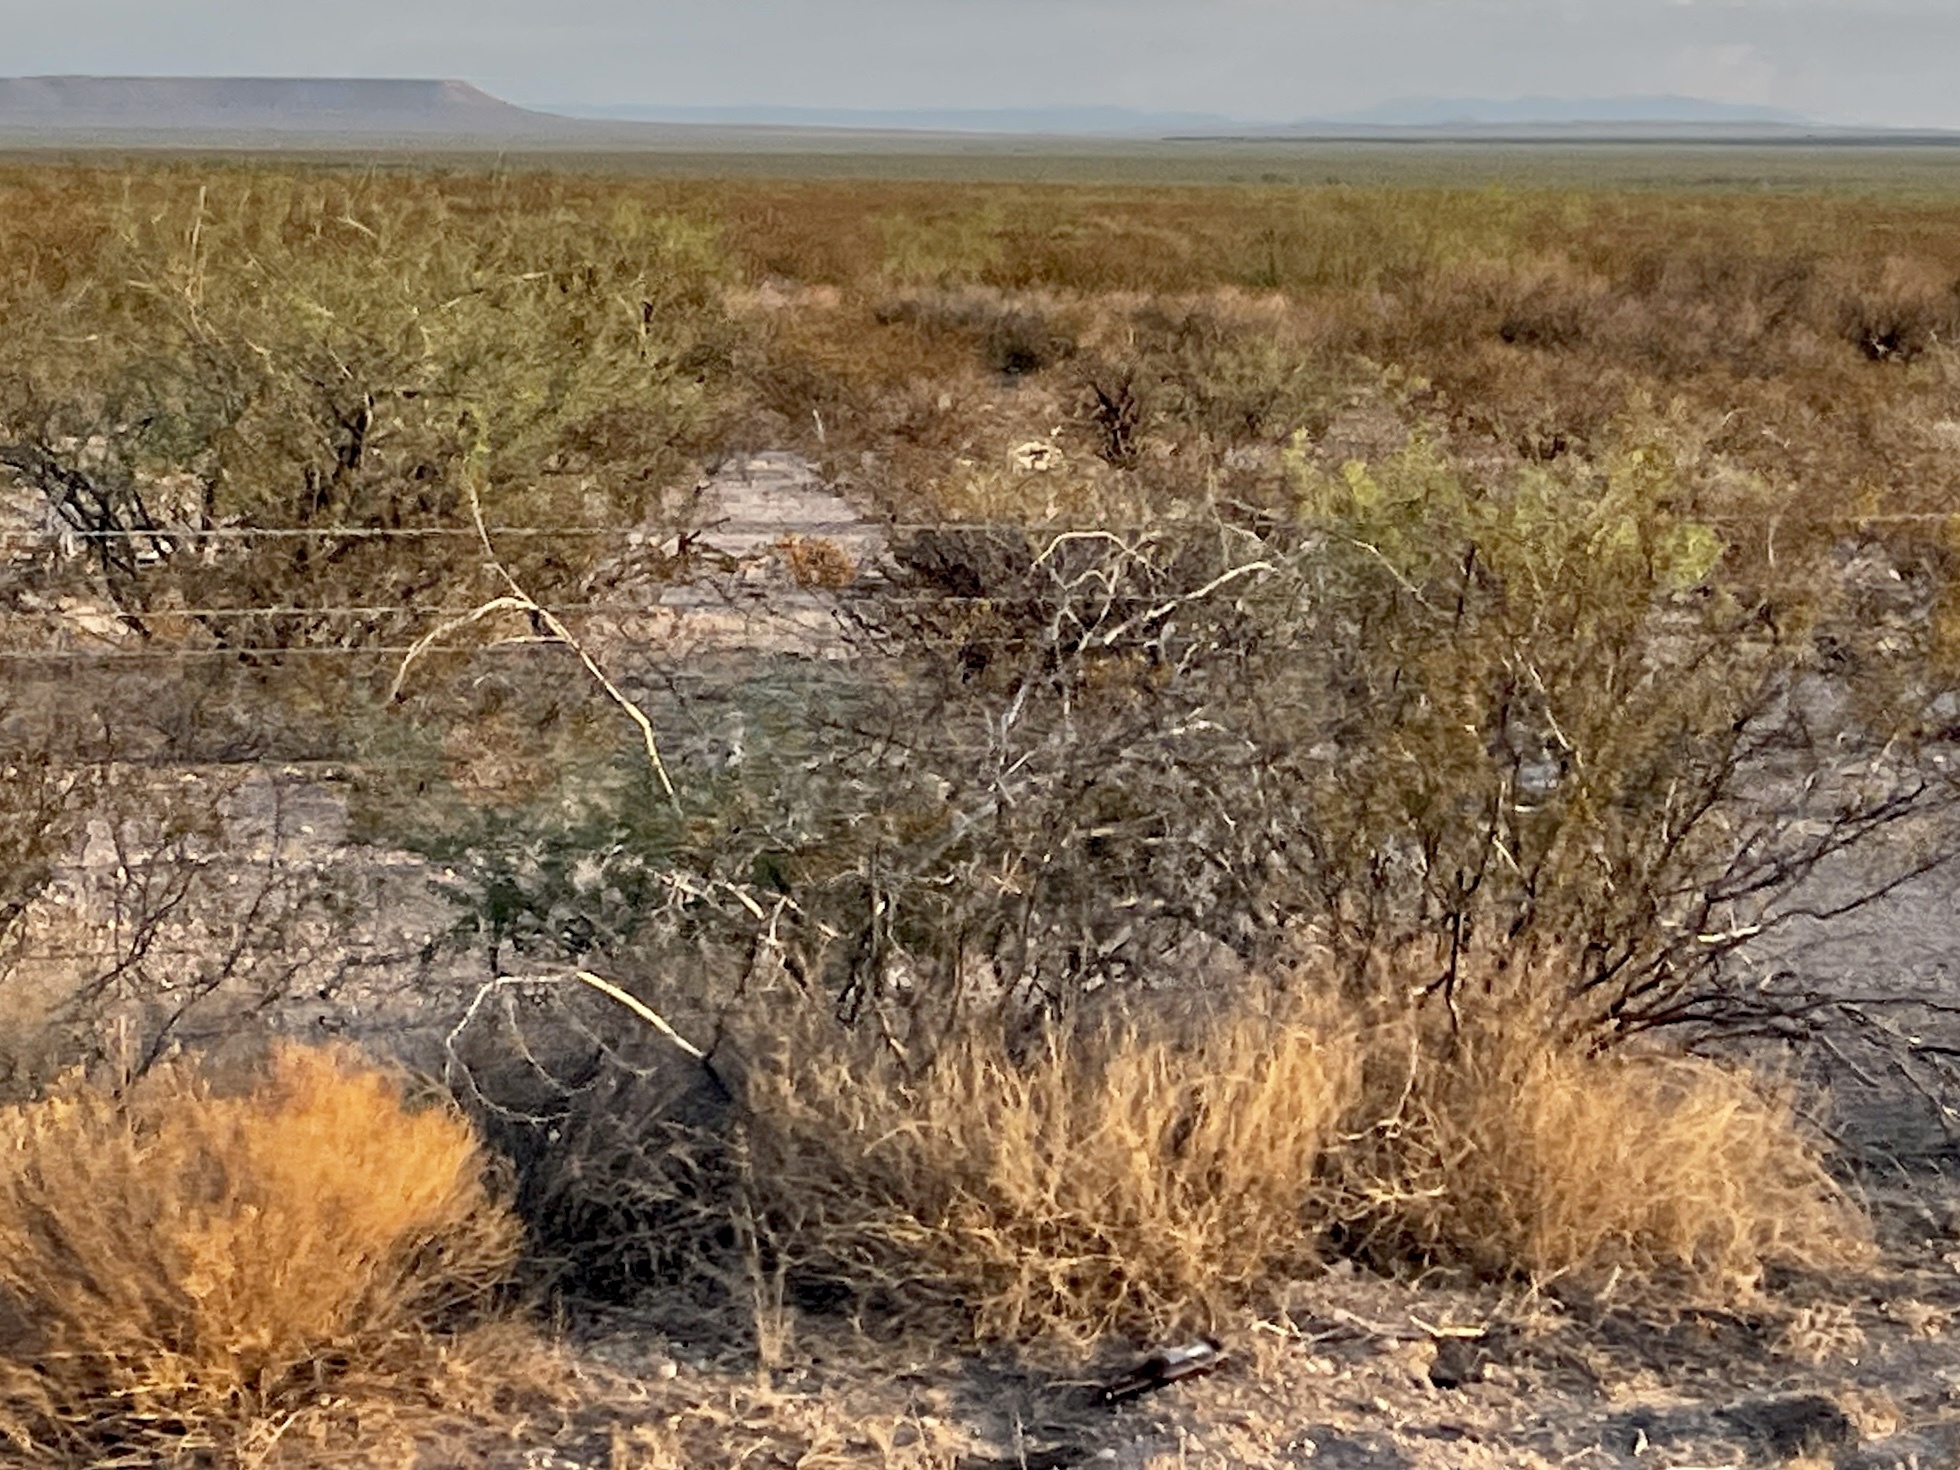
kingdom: Plantae
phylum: Tracheophyta
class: Magnoliopsida
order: Zygophyllales
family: Zygophyllaceae
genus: Larrea
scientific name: Larrea tridentata
